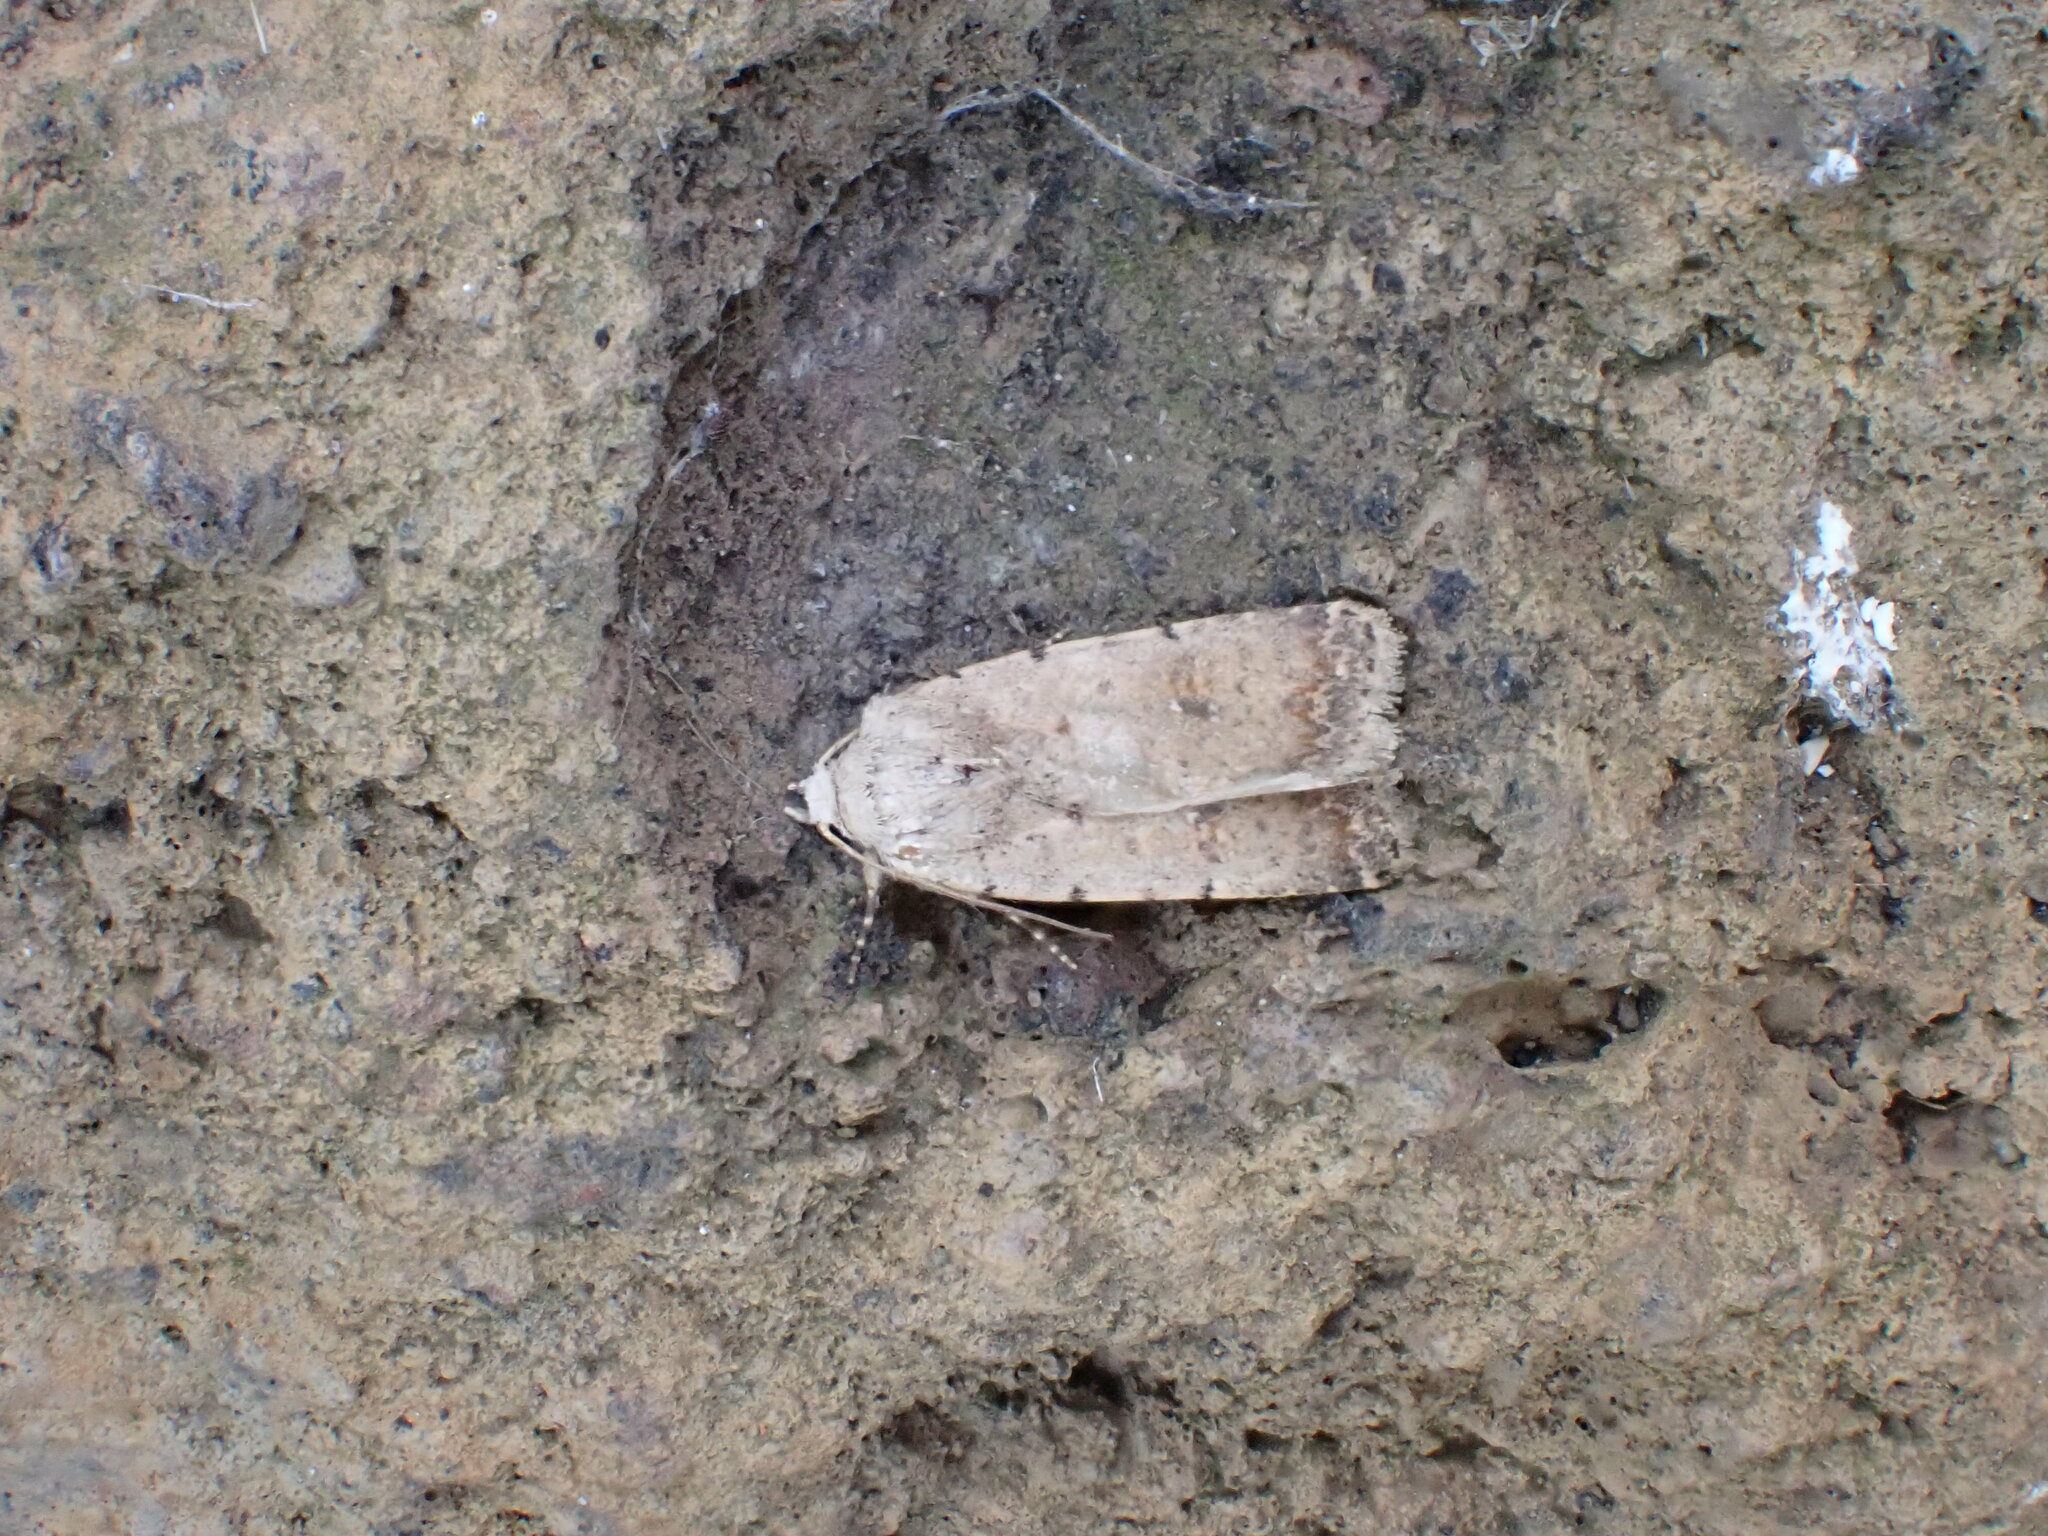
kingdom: Animalia
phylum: Arthropoda
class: Insecta
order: Lepidoptera
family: Noctuidae
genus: Caradrina
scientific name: Caradrina clavipalpis
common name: Pale mottled willow
